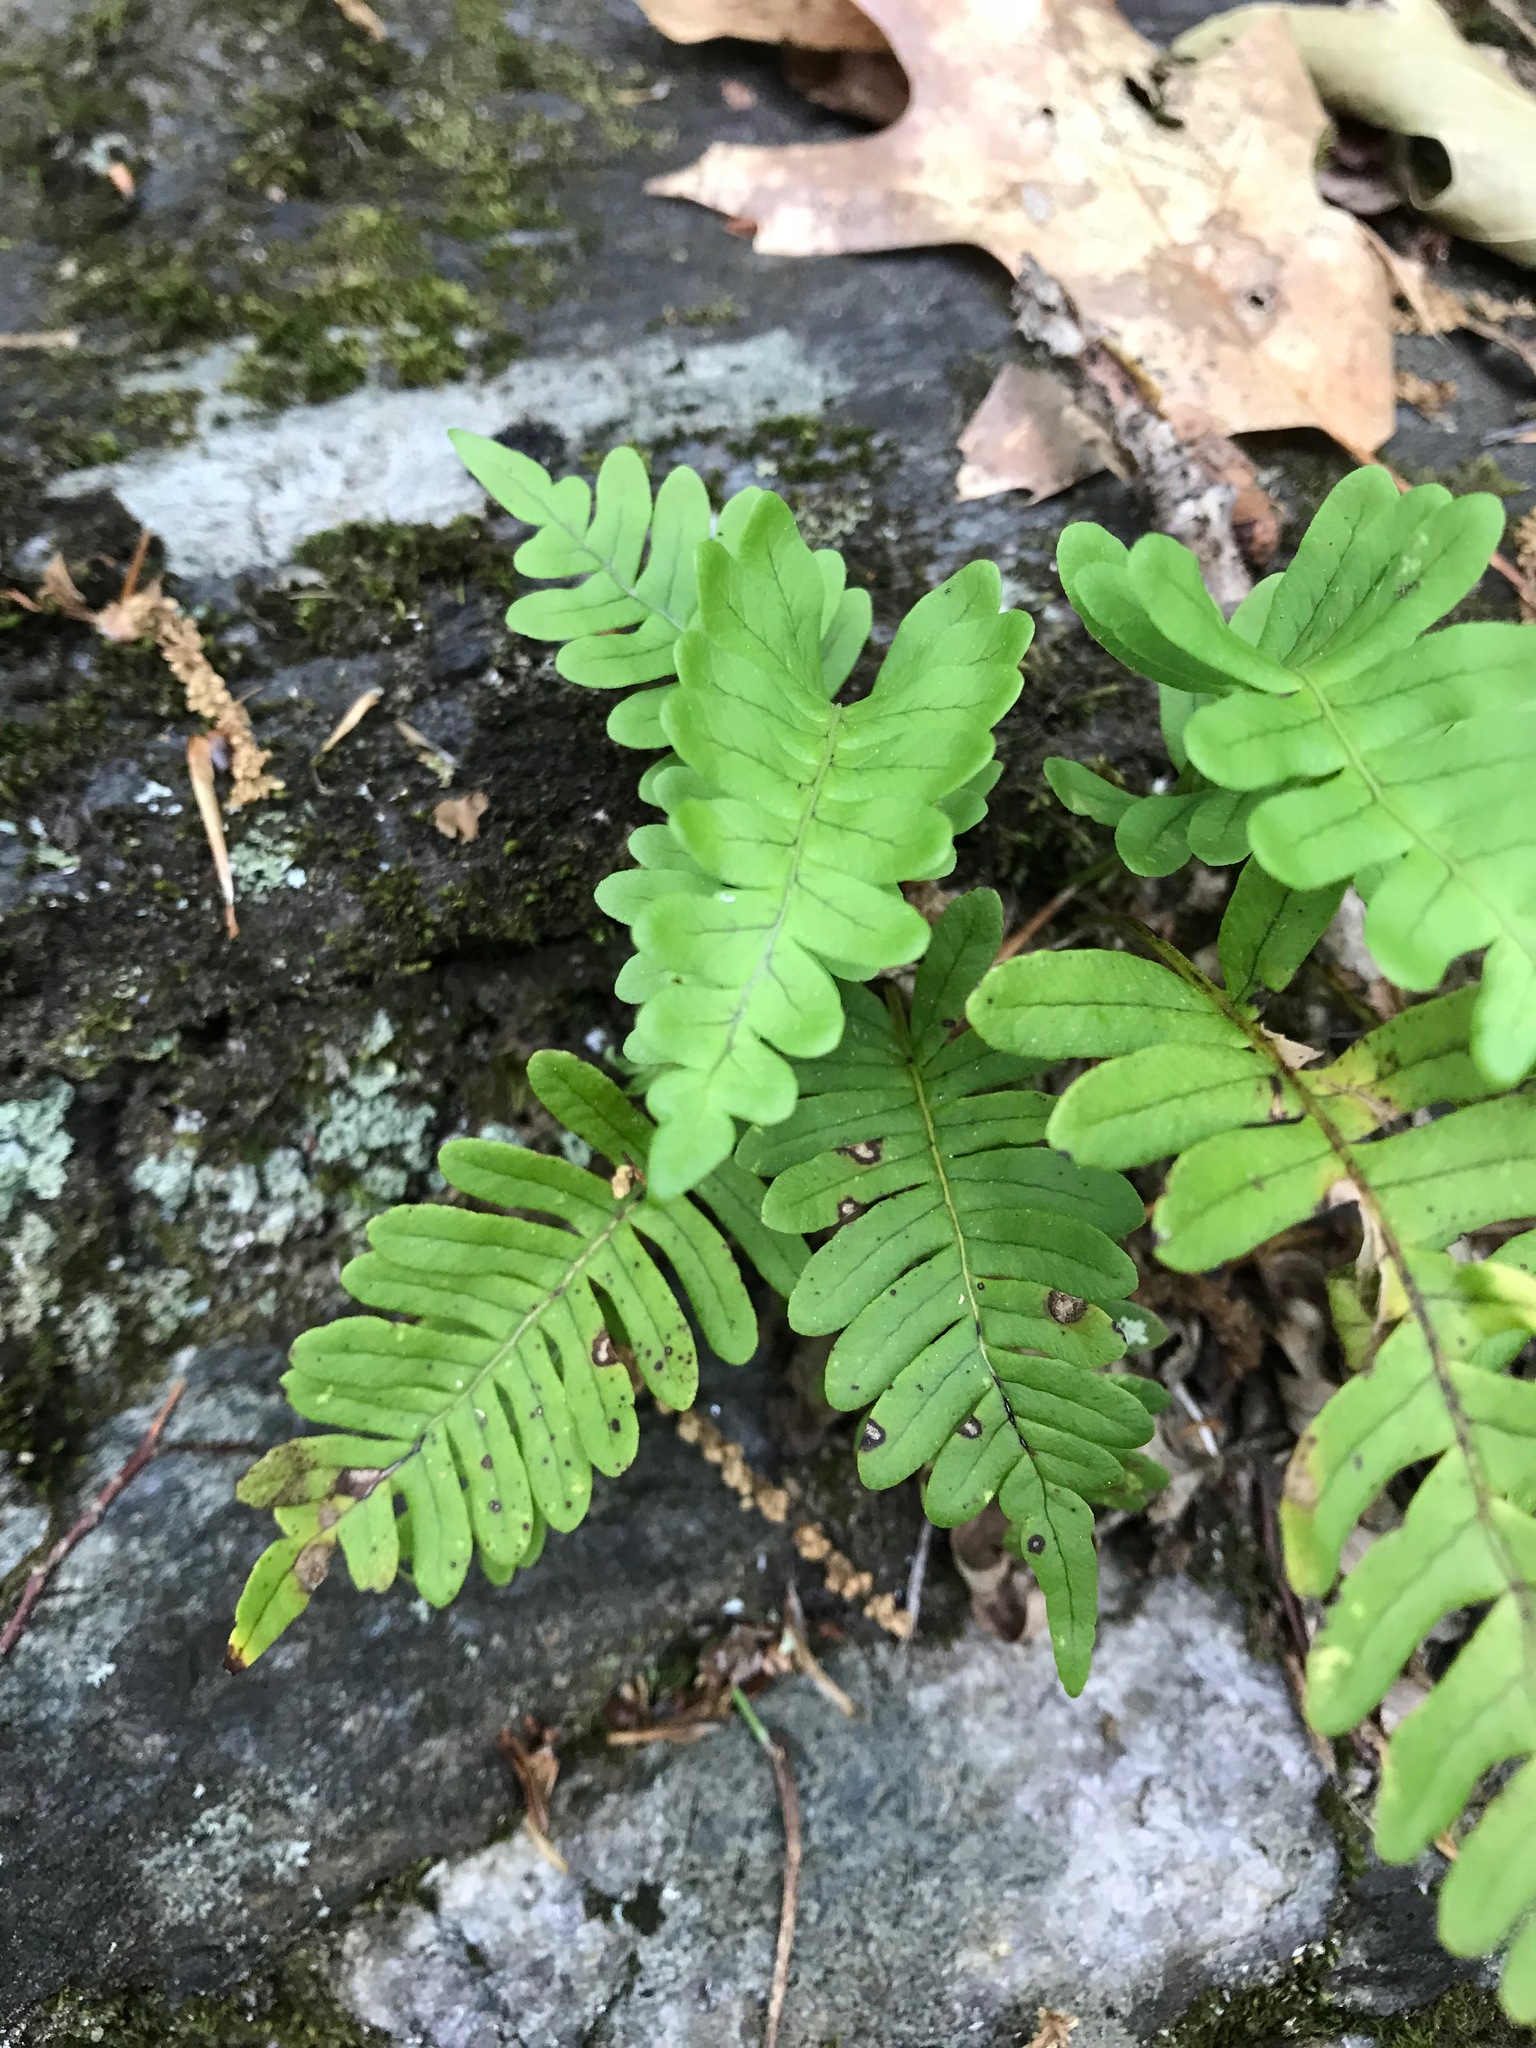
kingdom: Plantae
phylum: Tracheophyta
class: Polypodiopsida
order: Polypodiales
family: Polypodiaceae
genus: Polypodium
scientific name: Polypodium virginianum
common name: American wall fern
